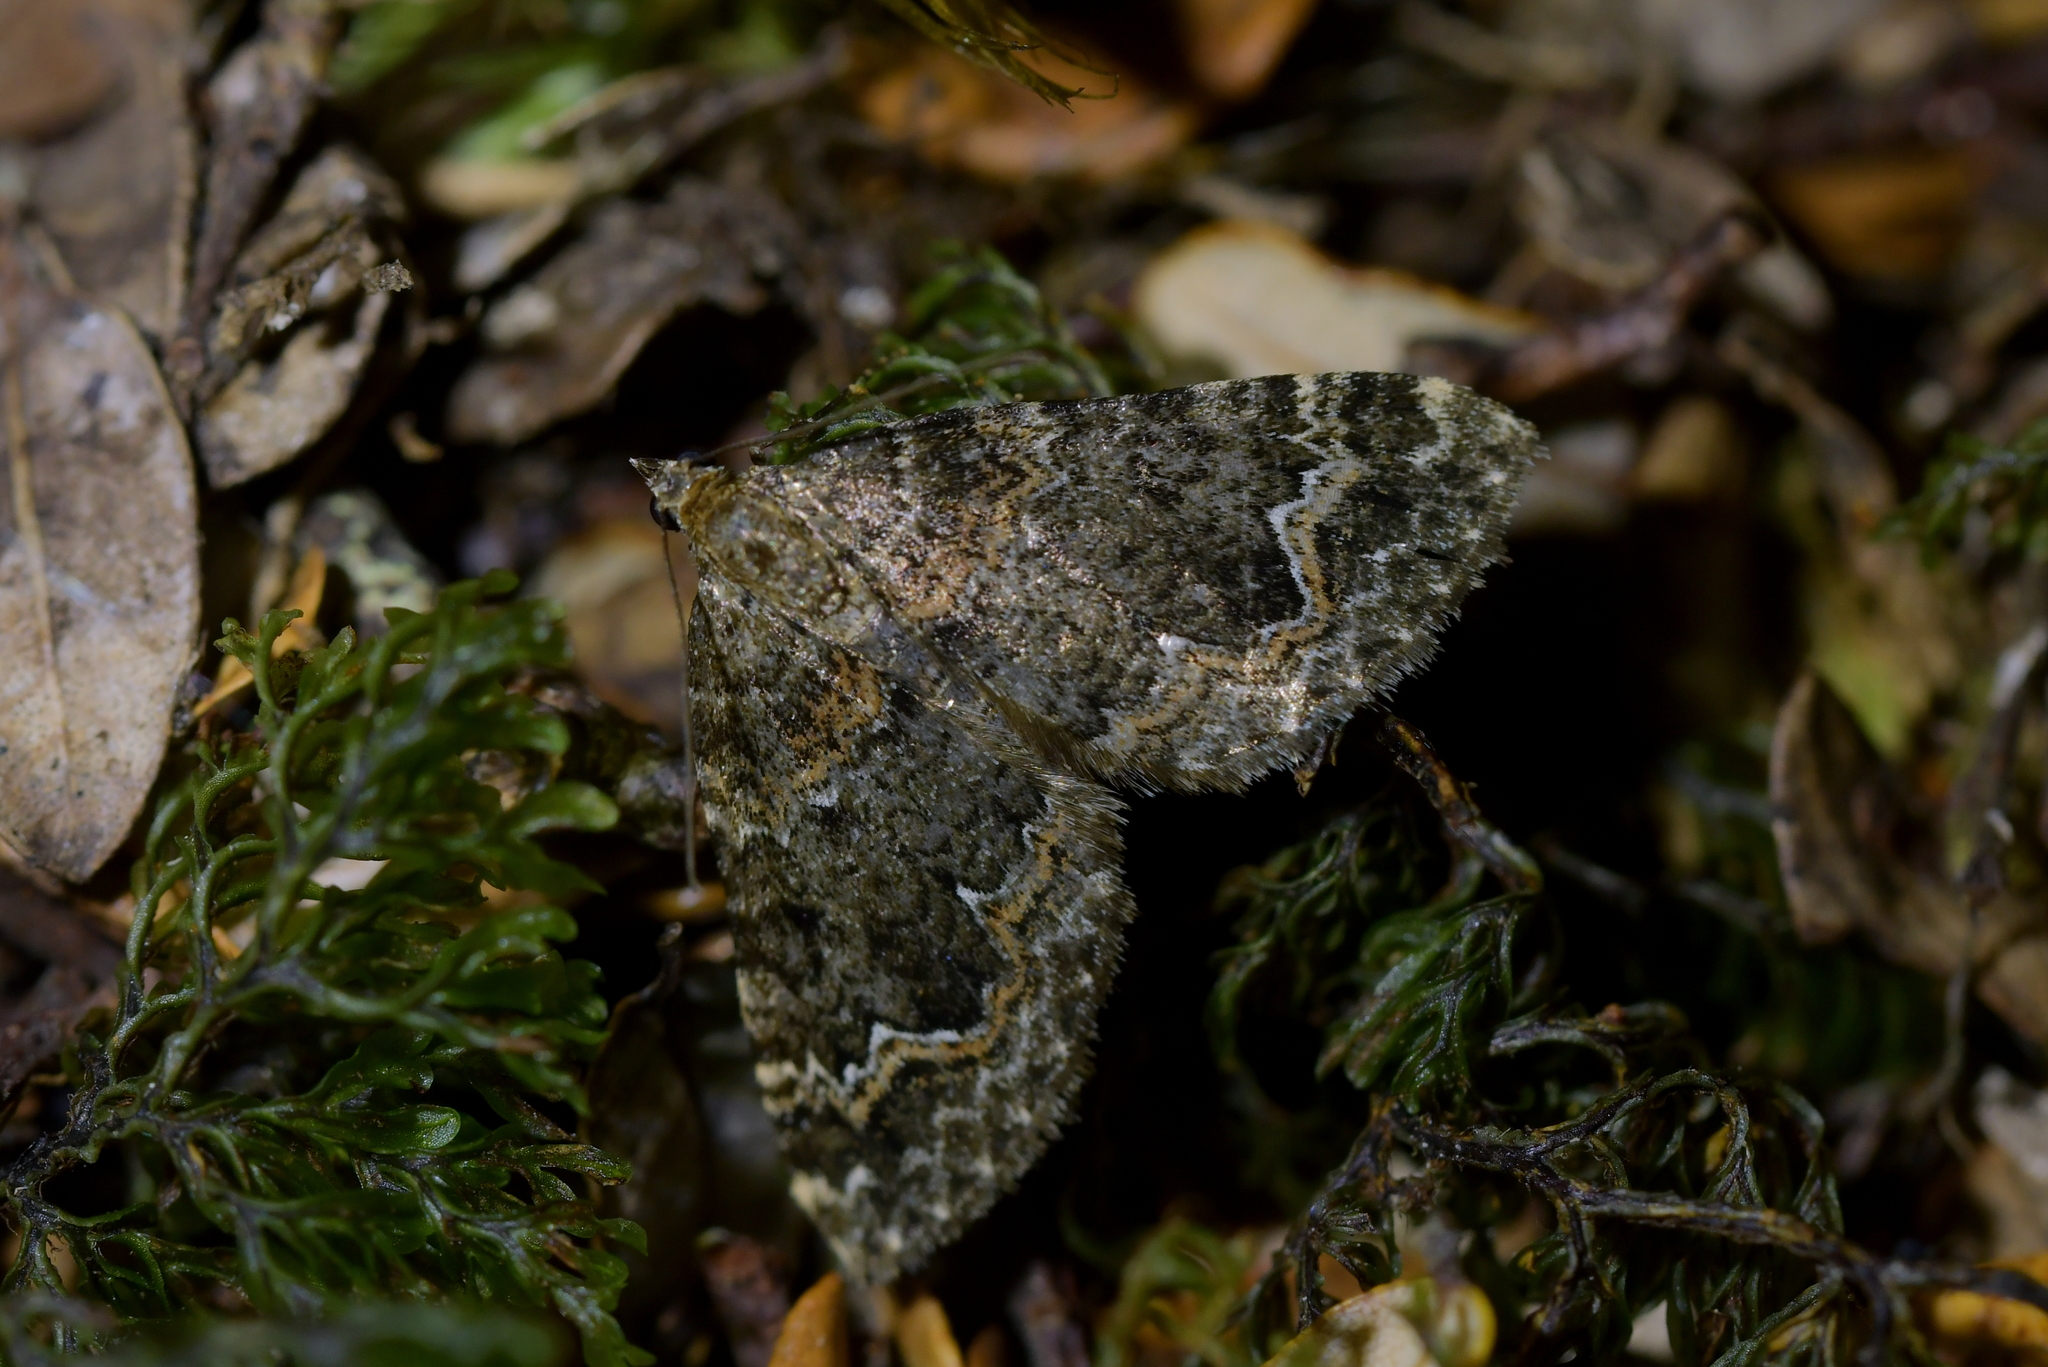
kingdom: Animalia
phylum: Arthropoda
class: Insecta
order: Lepidoptera
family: Geometridae
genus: Hydriomena
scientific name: Hydriomena hemizona
